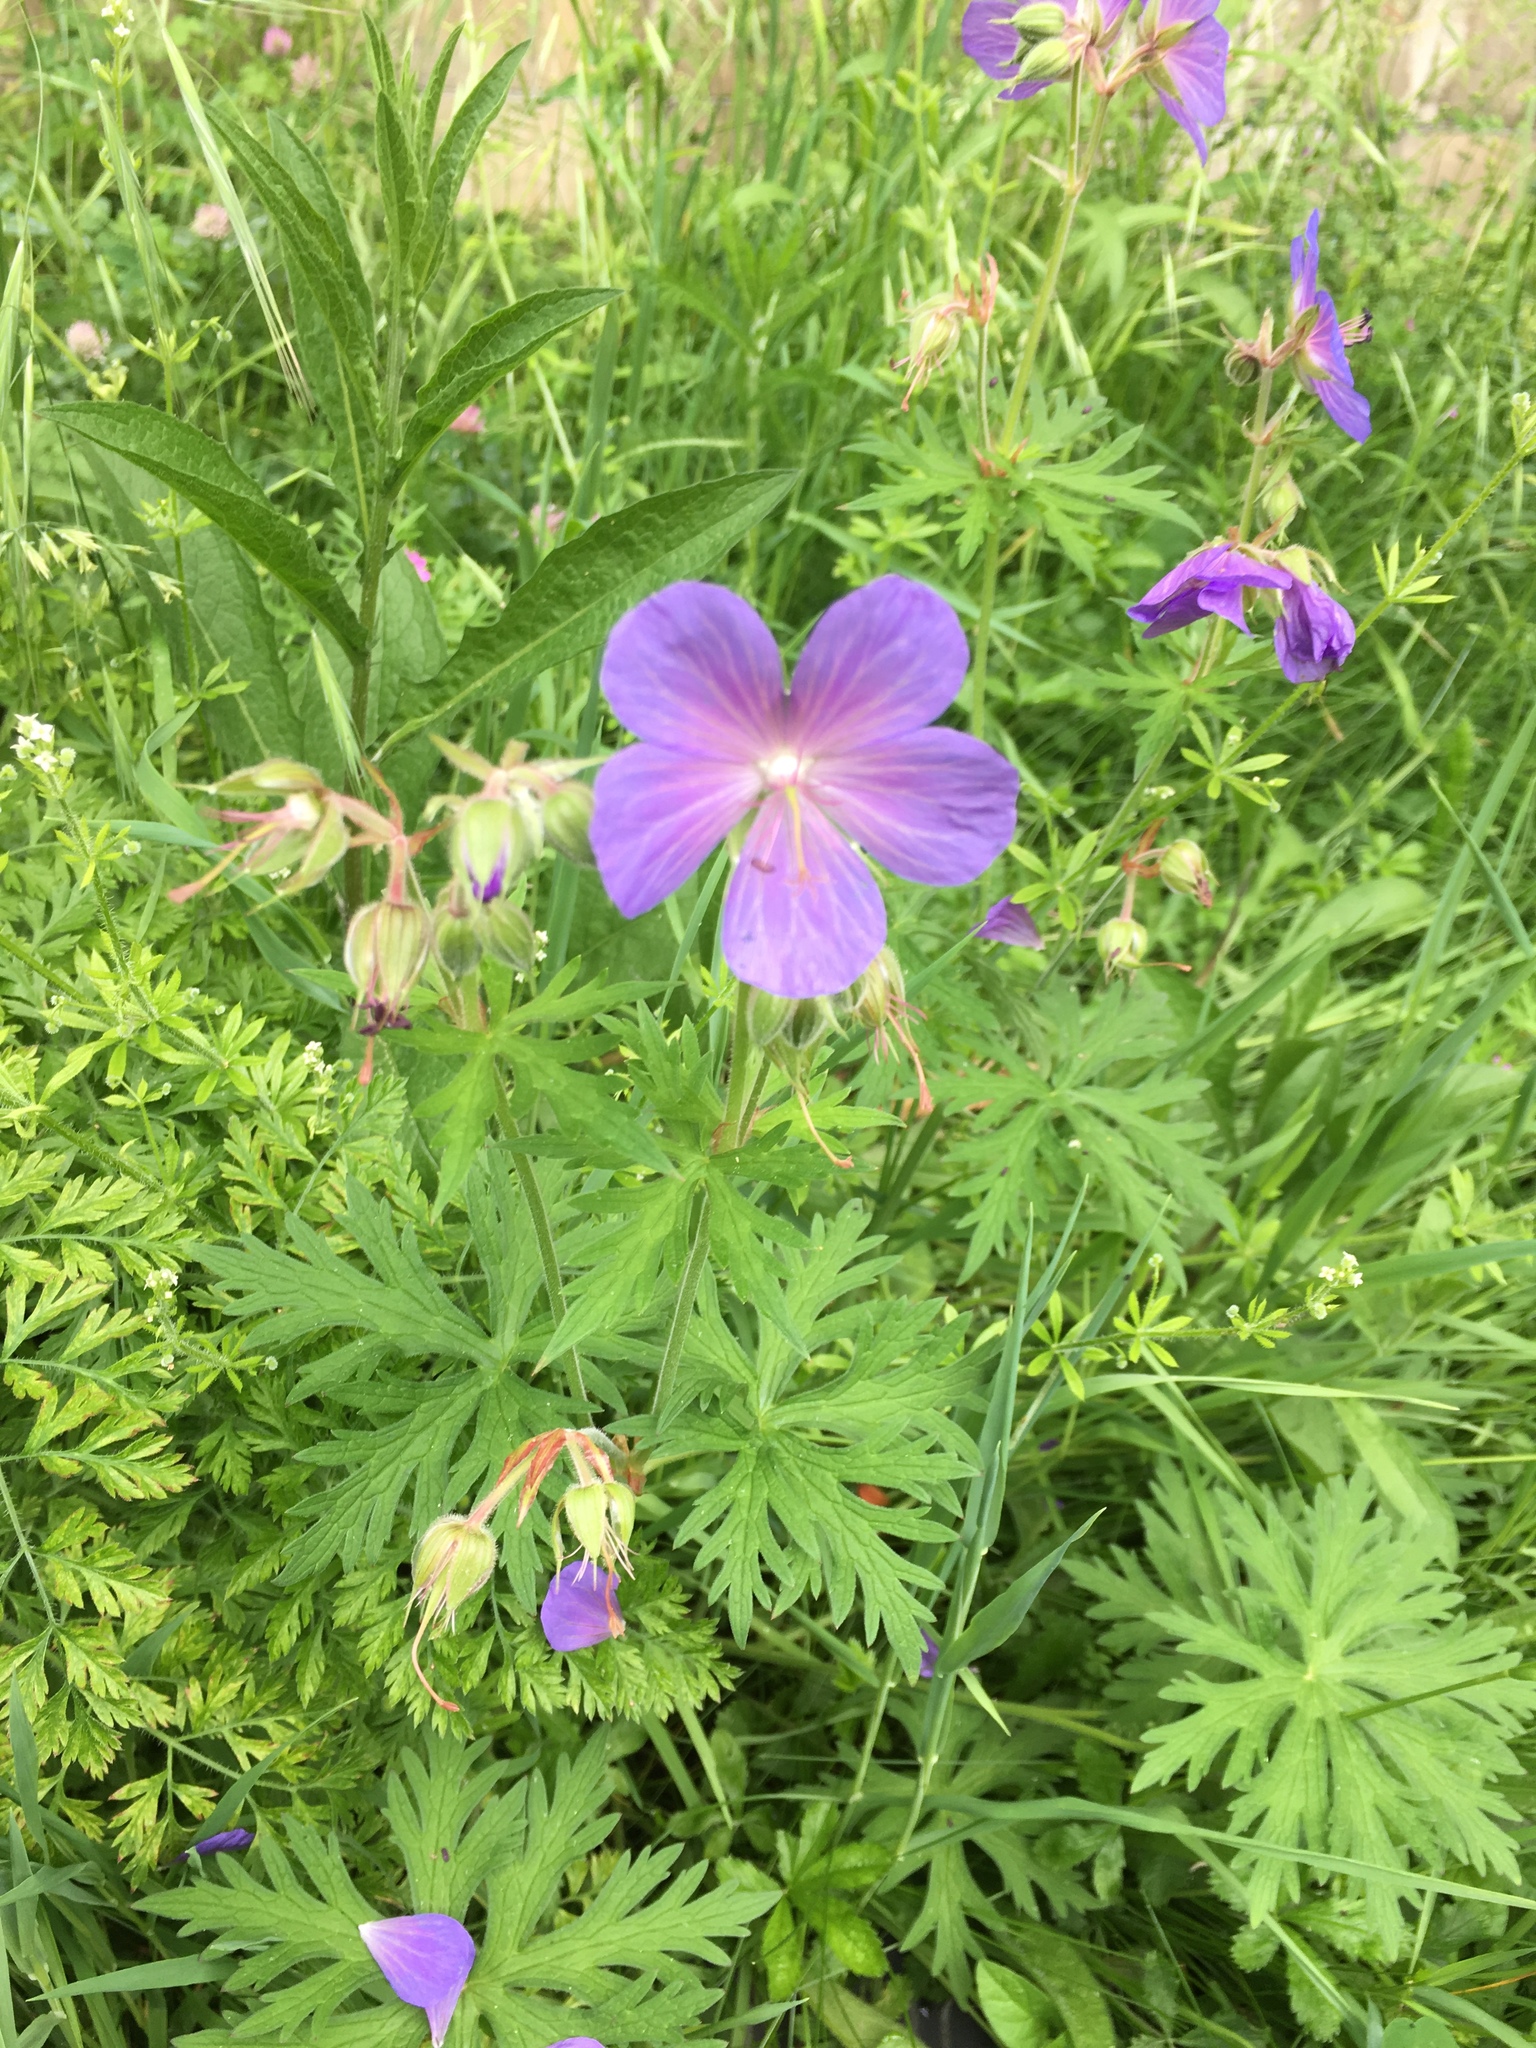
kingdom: Plantae
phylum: Tracheophyta
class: Magnoliopsida
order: Geraniales
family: Geraniaceae
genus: Geranium
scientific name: Geranium pratense
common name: Meadow crane's-bill
